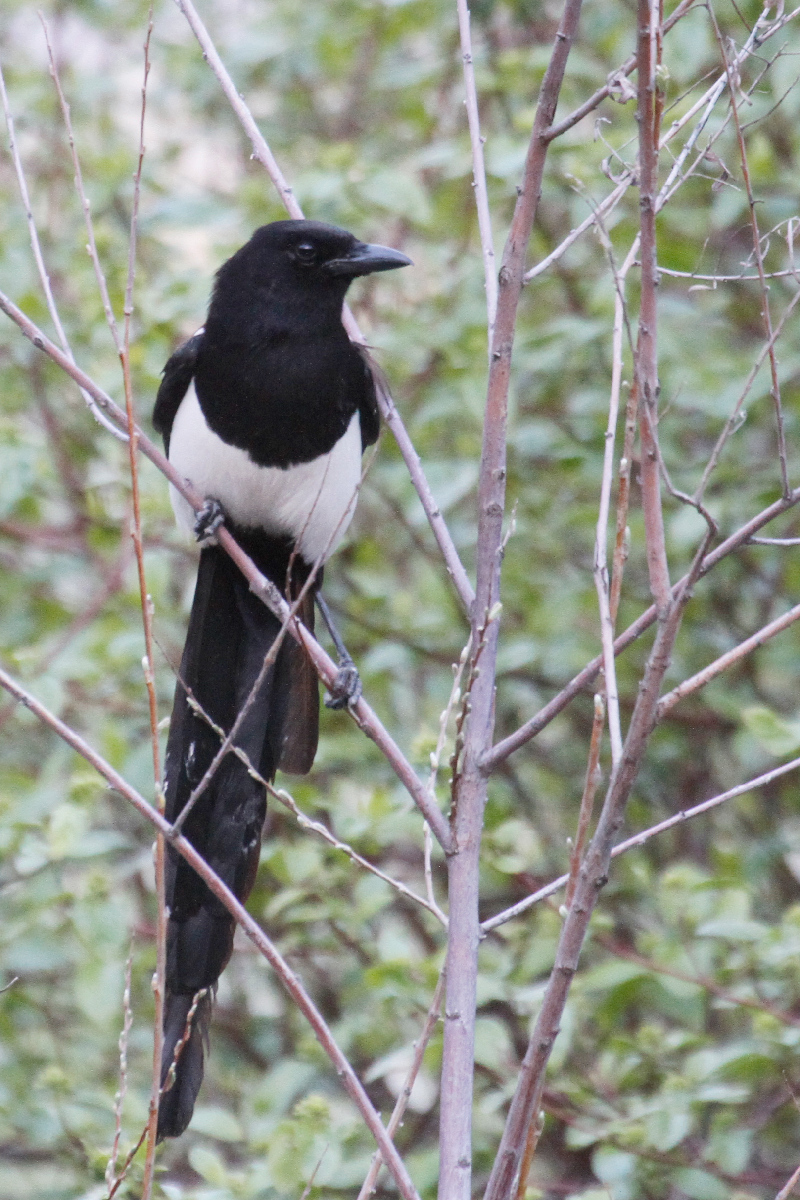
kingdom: Animalia
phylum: Chordata
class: Aves
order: Passeriformes
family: Corvidae
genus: Pica
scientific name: Pica hudsonia
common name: Black-billed magpie
